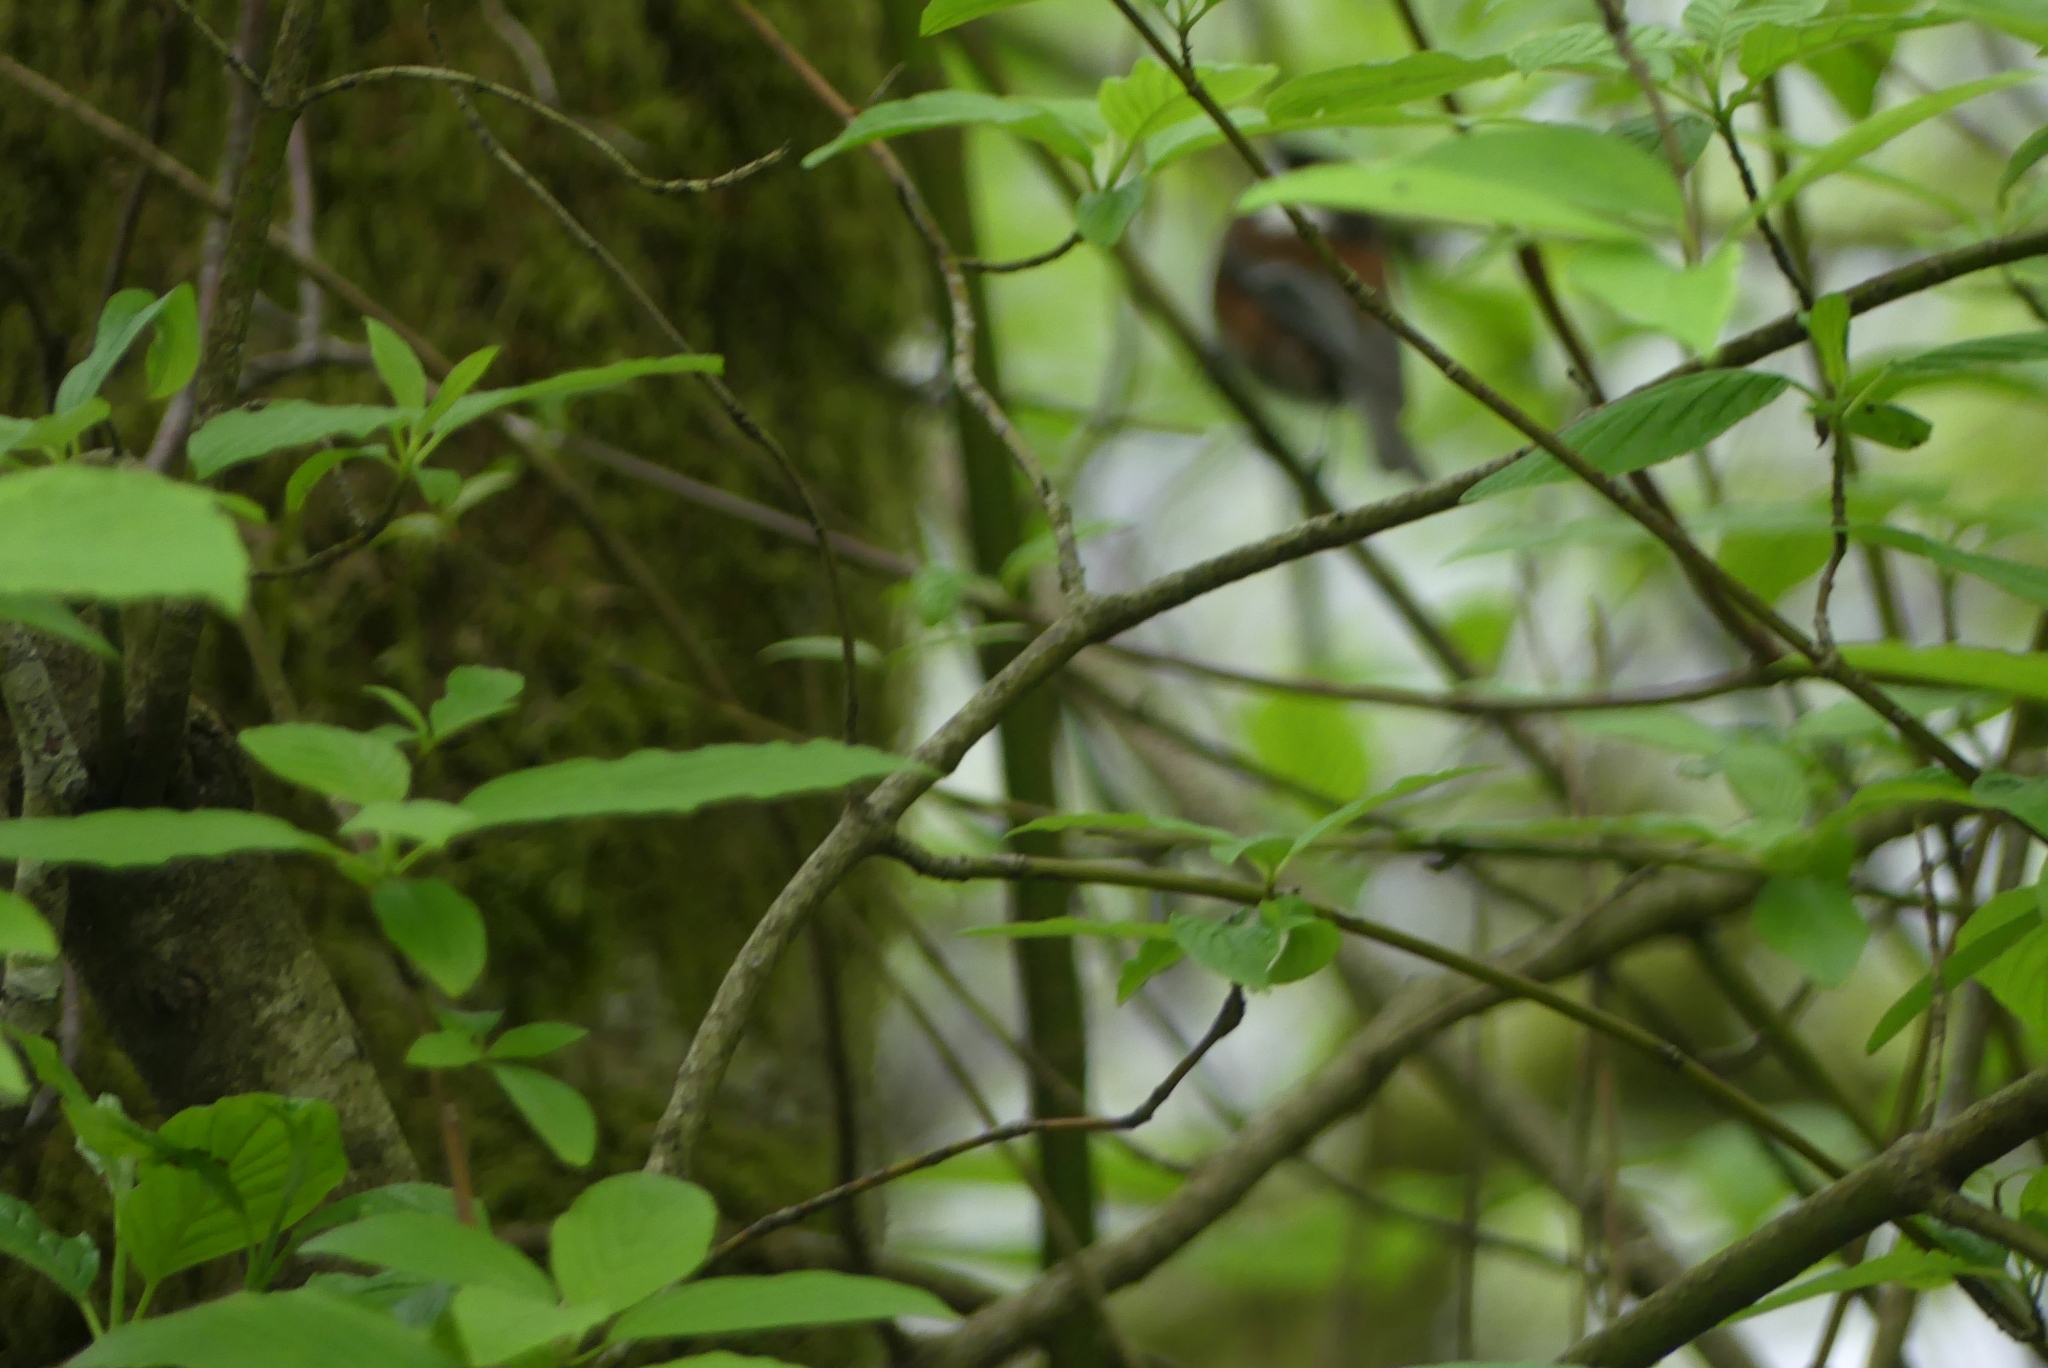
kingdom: Animalia
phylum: Chordata
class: Aves
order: Passeriformes
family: Paridae
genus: Poecile
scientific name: Poecile rufescens
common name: Chestnut-backed chickadee
